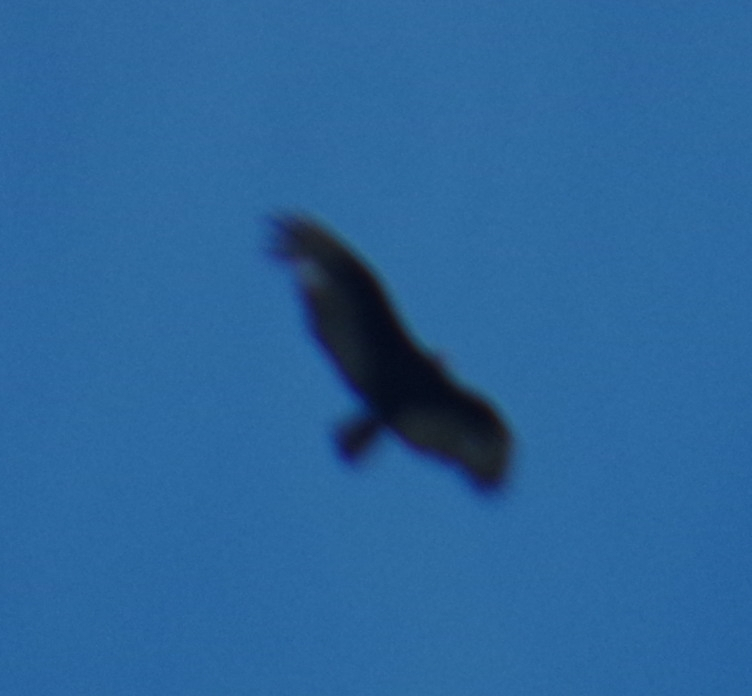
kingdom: Animalia
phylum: Chordata
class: Aves
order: Accipitriformes
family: Cathartidae
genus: Cathartes
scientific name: Cathartes aura
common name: Turkey vulture
